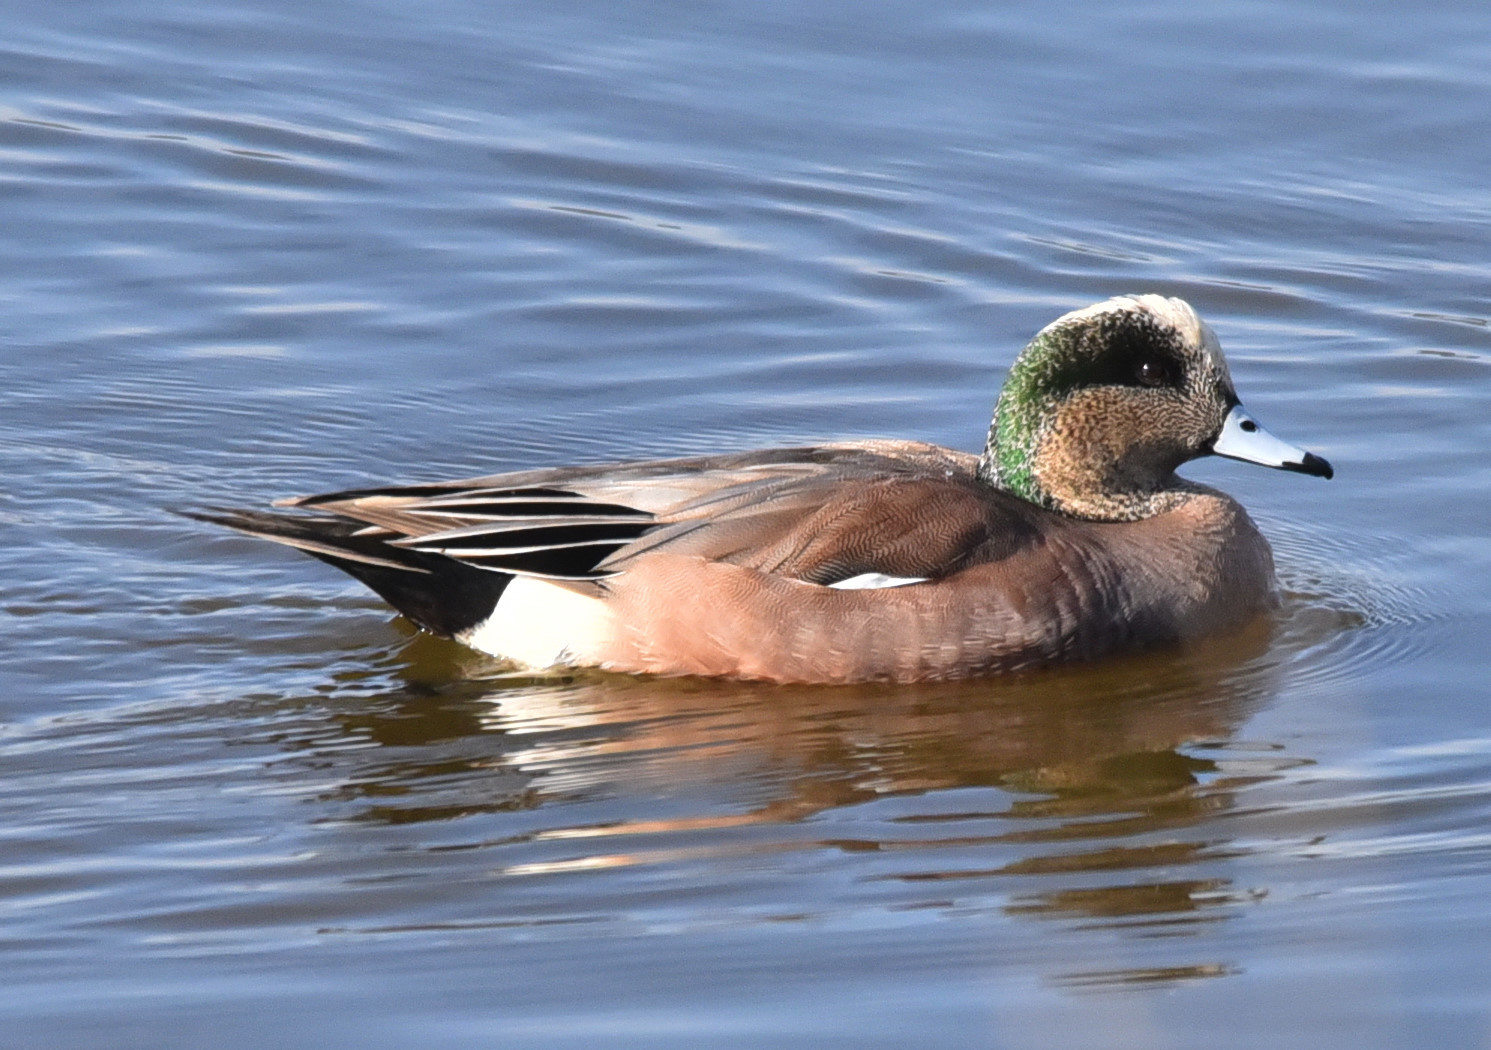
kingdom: Animalia
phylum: Chordata
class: Aves
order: Anseriformes
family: Anatidae
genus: Mareca
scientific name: Mareca americana
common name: American wigeon
